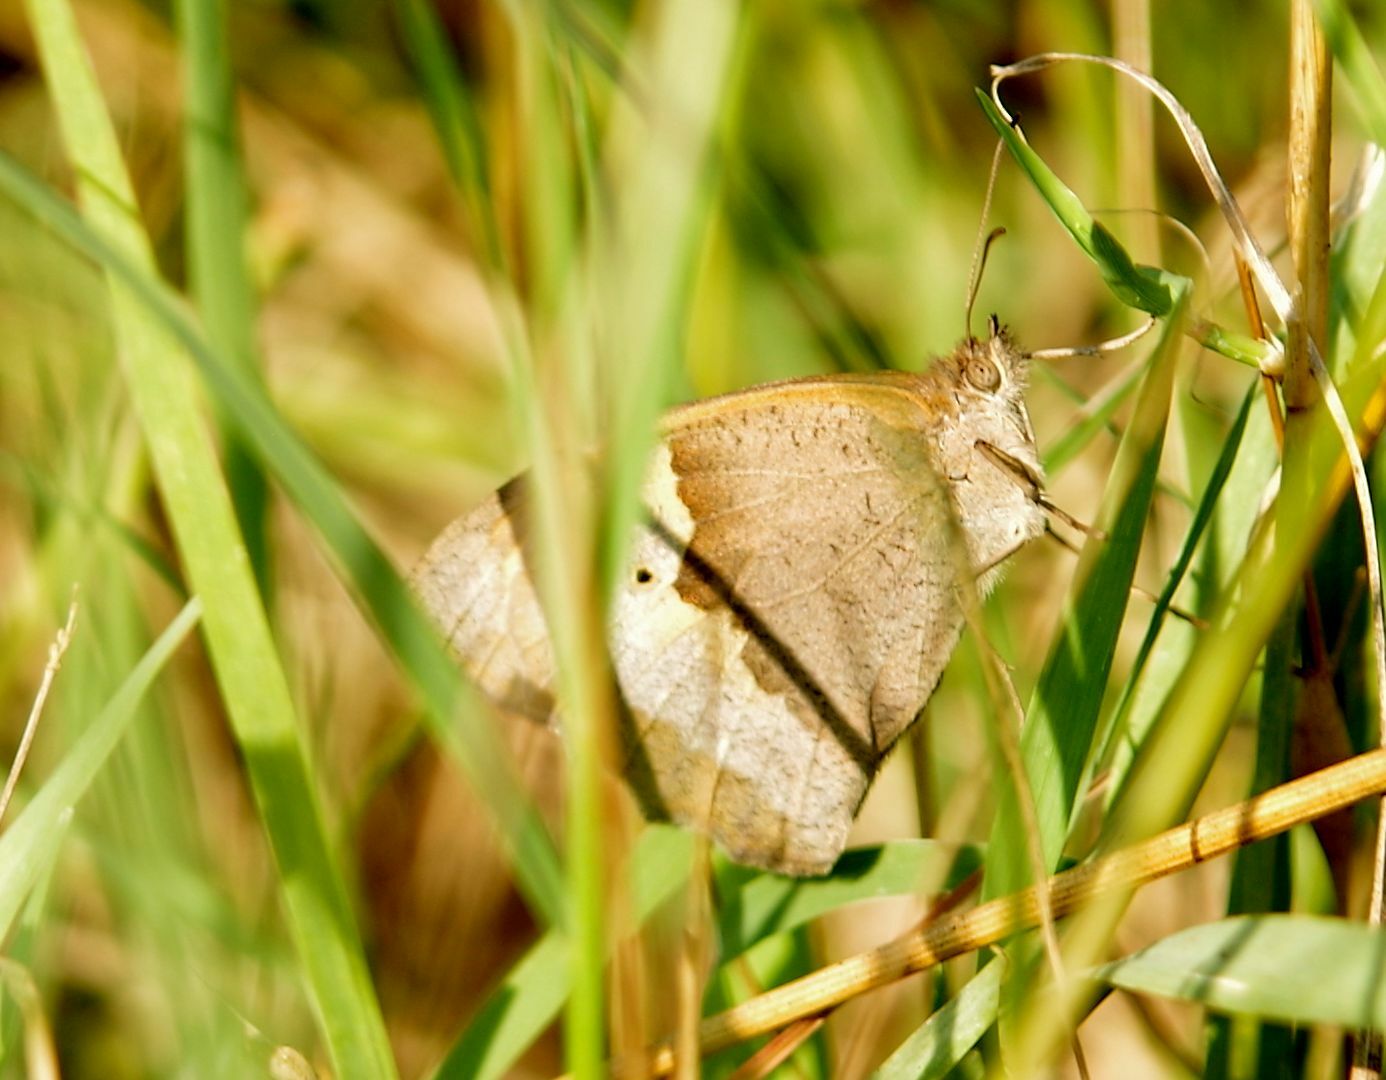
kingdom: Animalia
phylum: Arthropoda
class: Insecta
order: Lepidoptera
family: Nymphalidae
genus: Maniola
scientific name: Maniola jurtina
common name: Meadow brown
